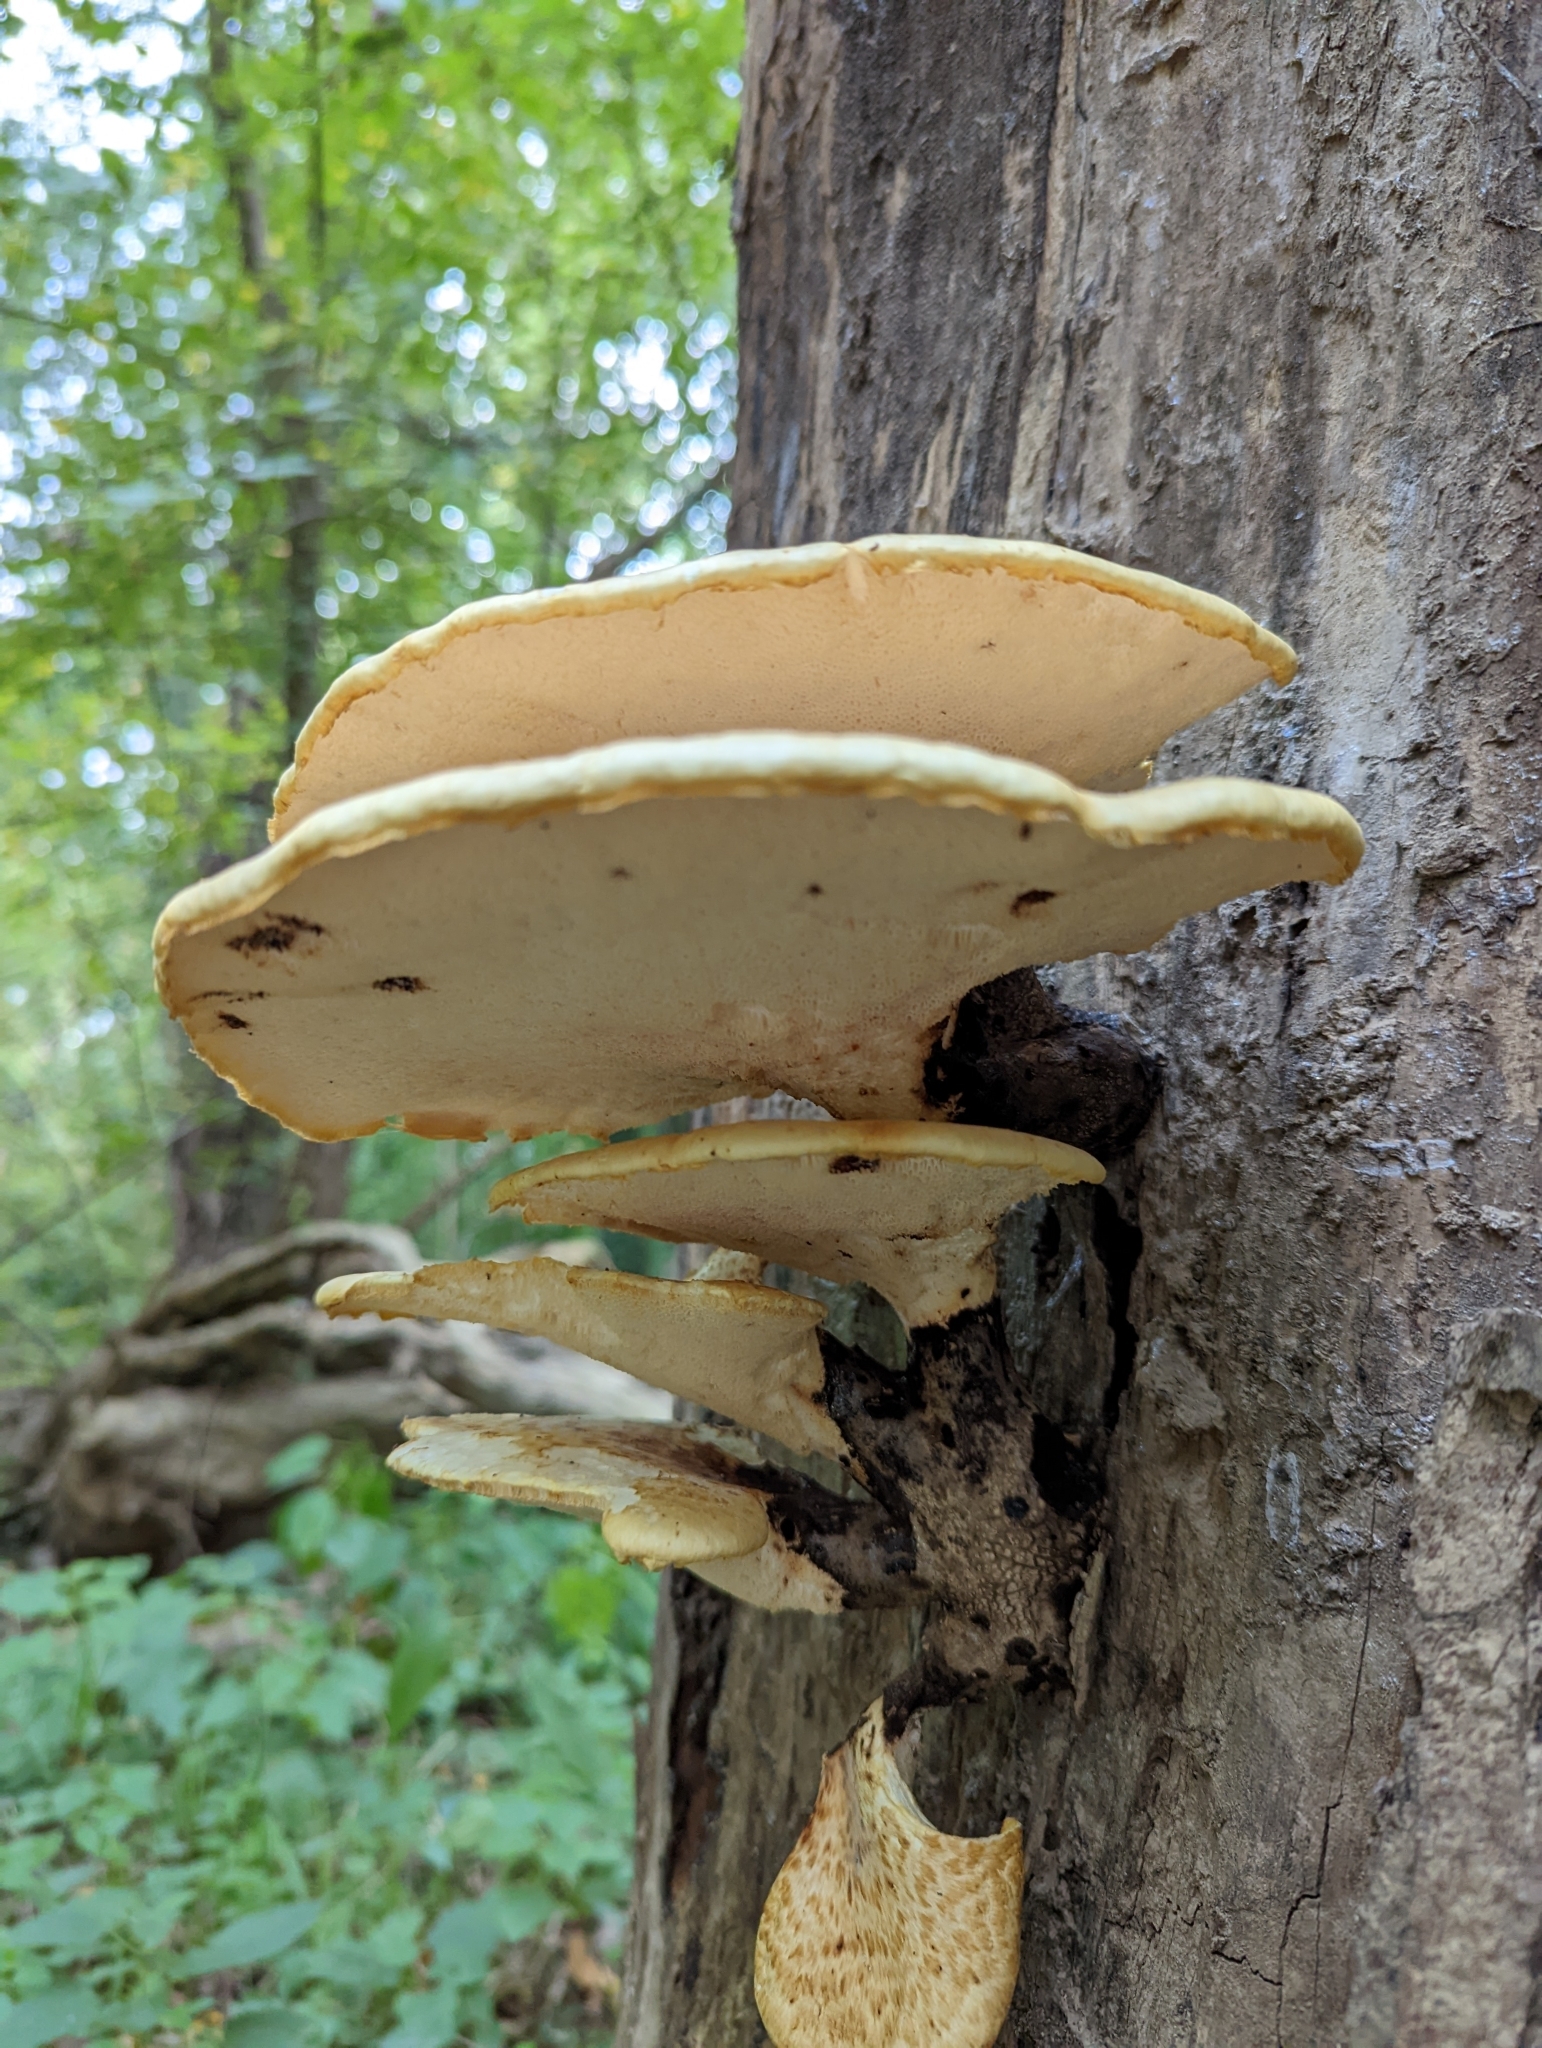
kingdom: Fungi
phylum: Basidiomycota
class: Agaricomycetes
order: Polyporales
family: Polyporaceae
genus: Cerioporus
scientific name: Cerioporus squamosus
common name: Dryad's saddle
